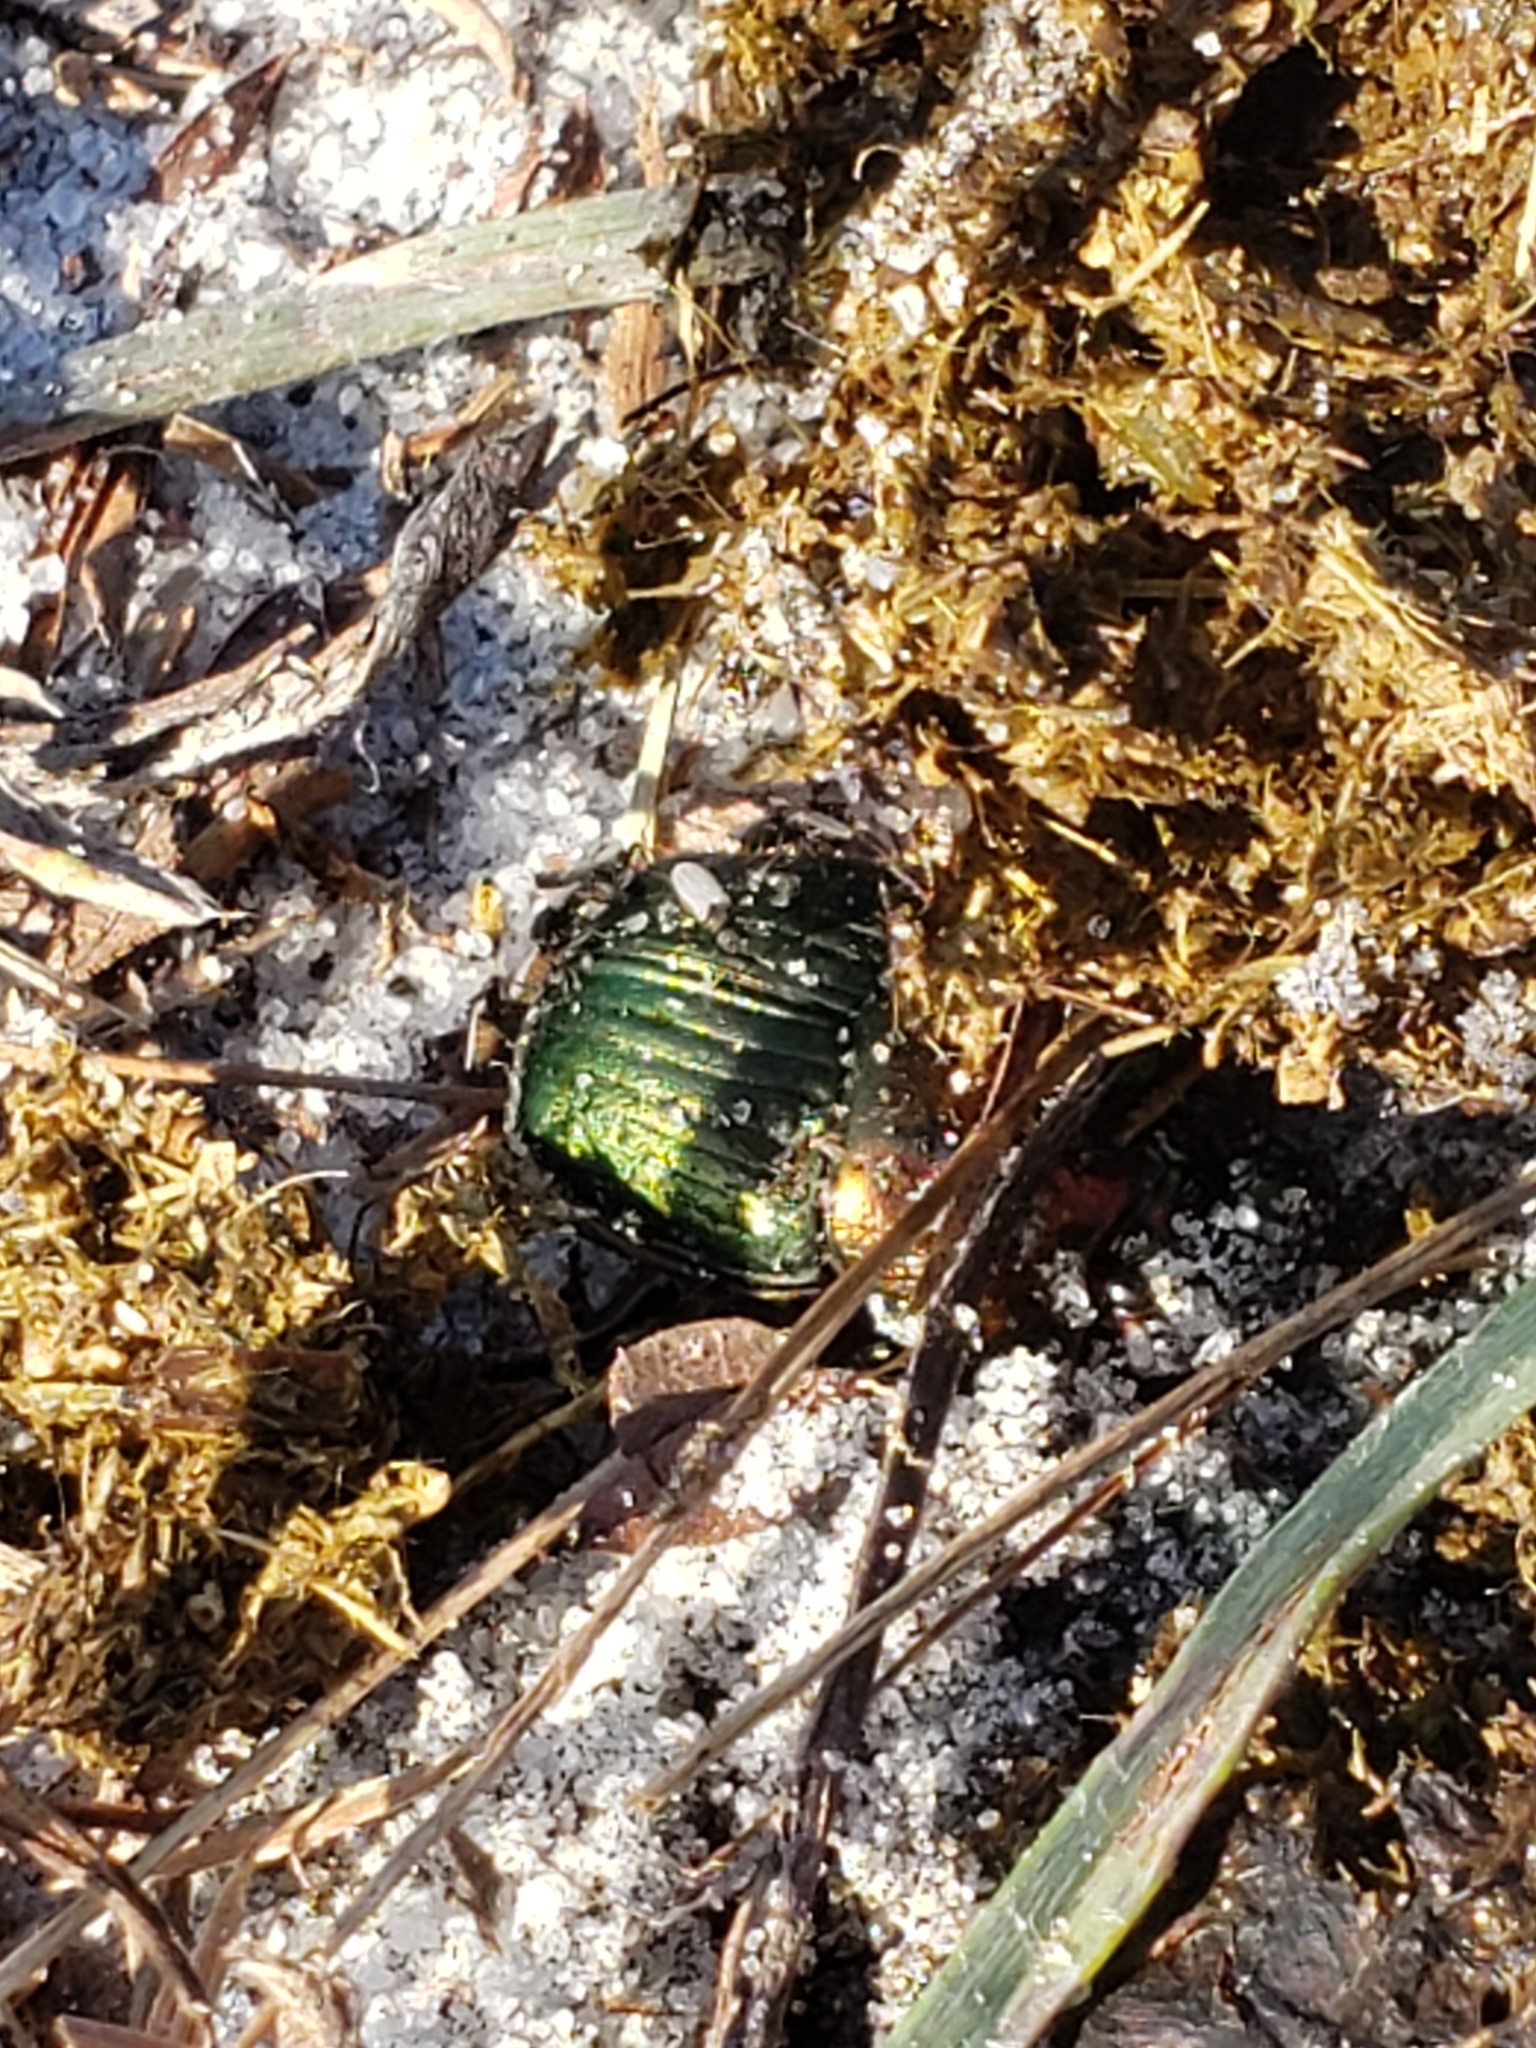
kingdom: Animalia
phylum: Arthropoda
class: Insecta
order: Coleoptera
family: Scarabaeidae
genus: Phanaeus
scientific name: Phanaeus igneus
